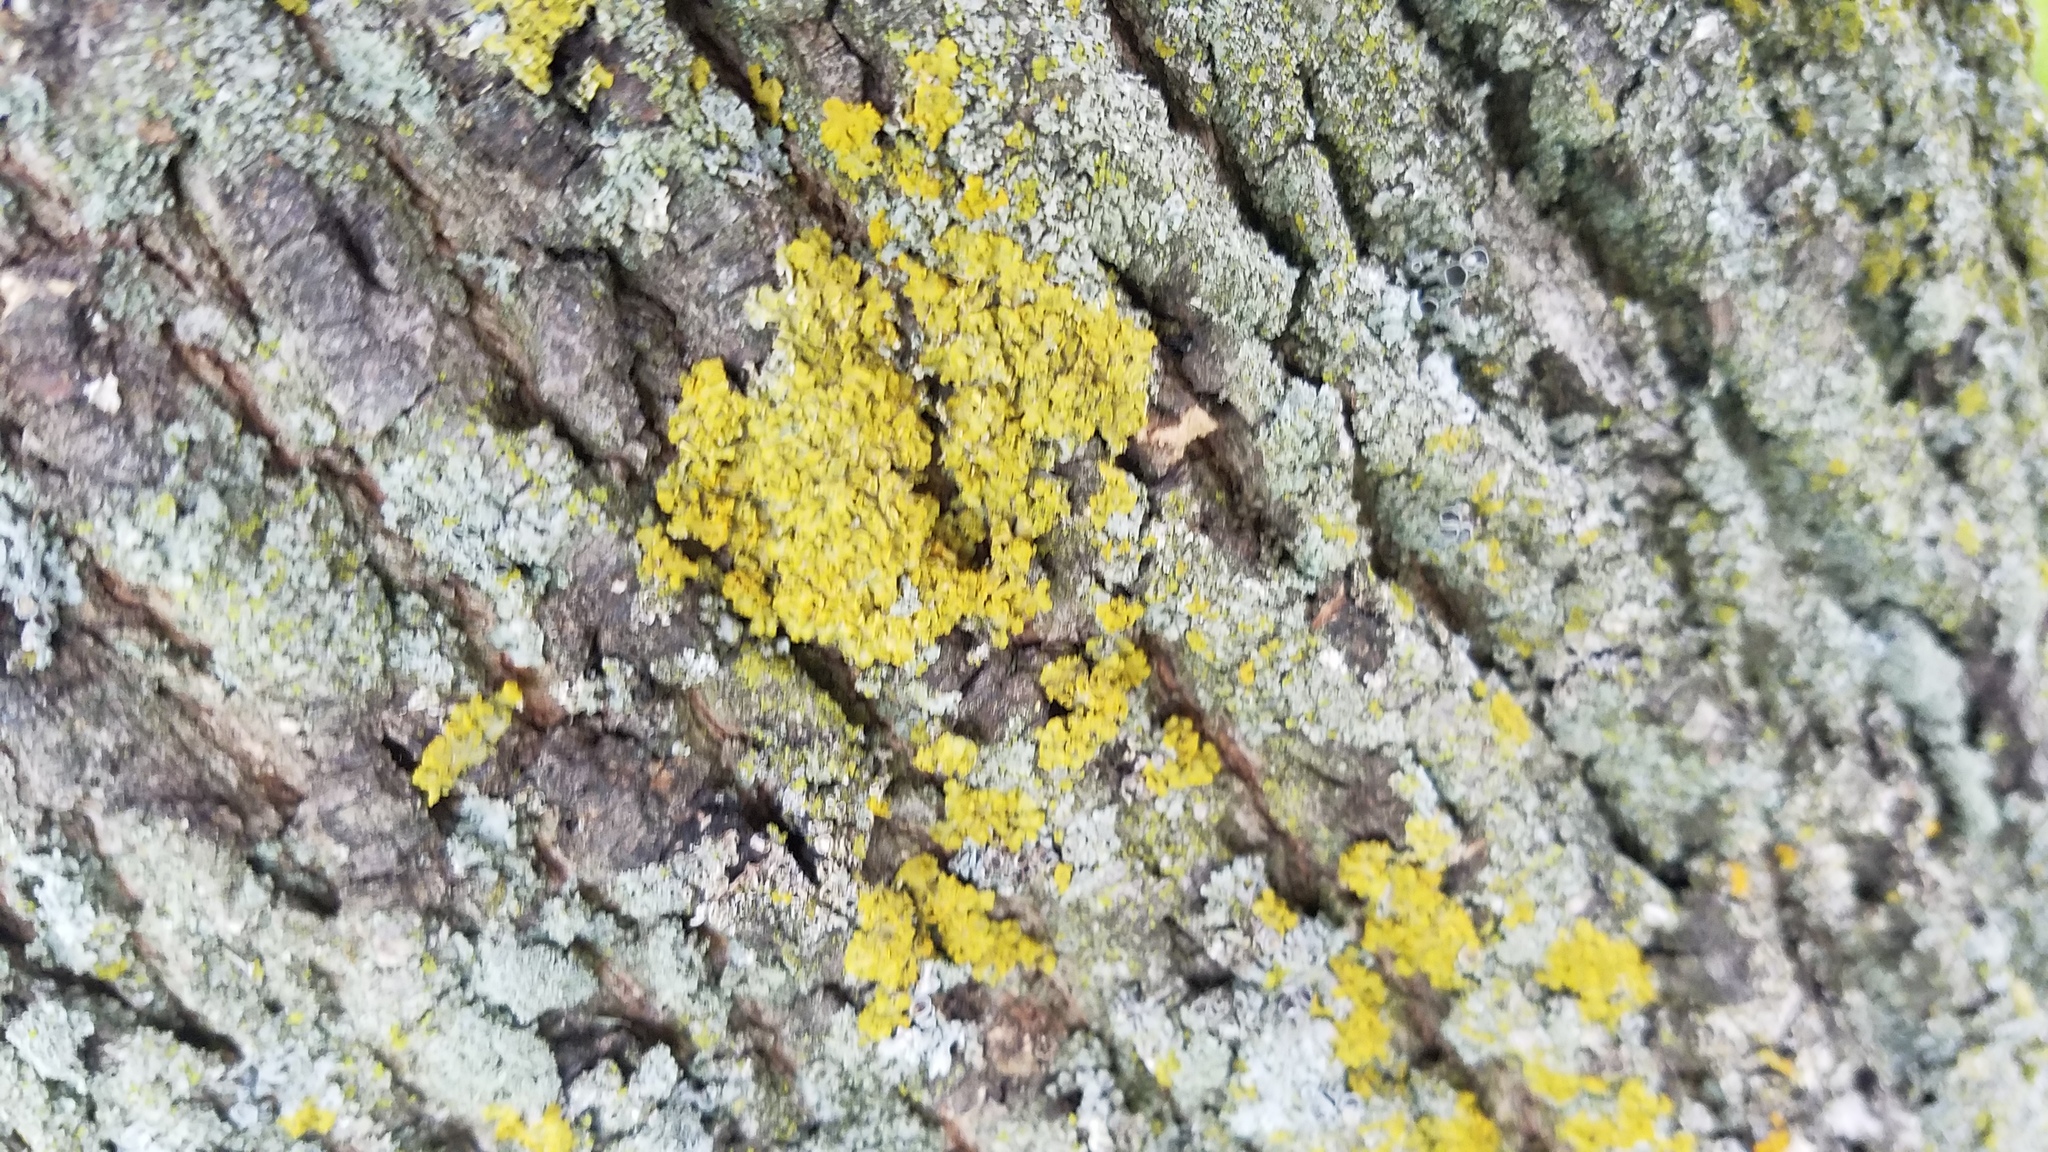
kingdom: Fungi
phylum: Ascomycota
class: Candelariomycetes
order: Candelariales
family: Candelariaceae
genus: Candelaria
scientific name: Candelaria concolor
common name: Candleflame lichen
